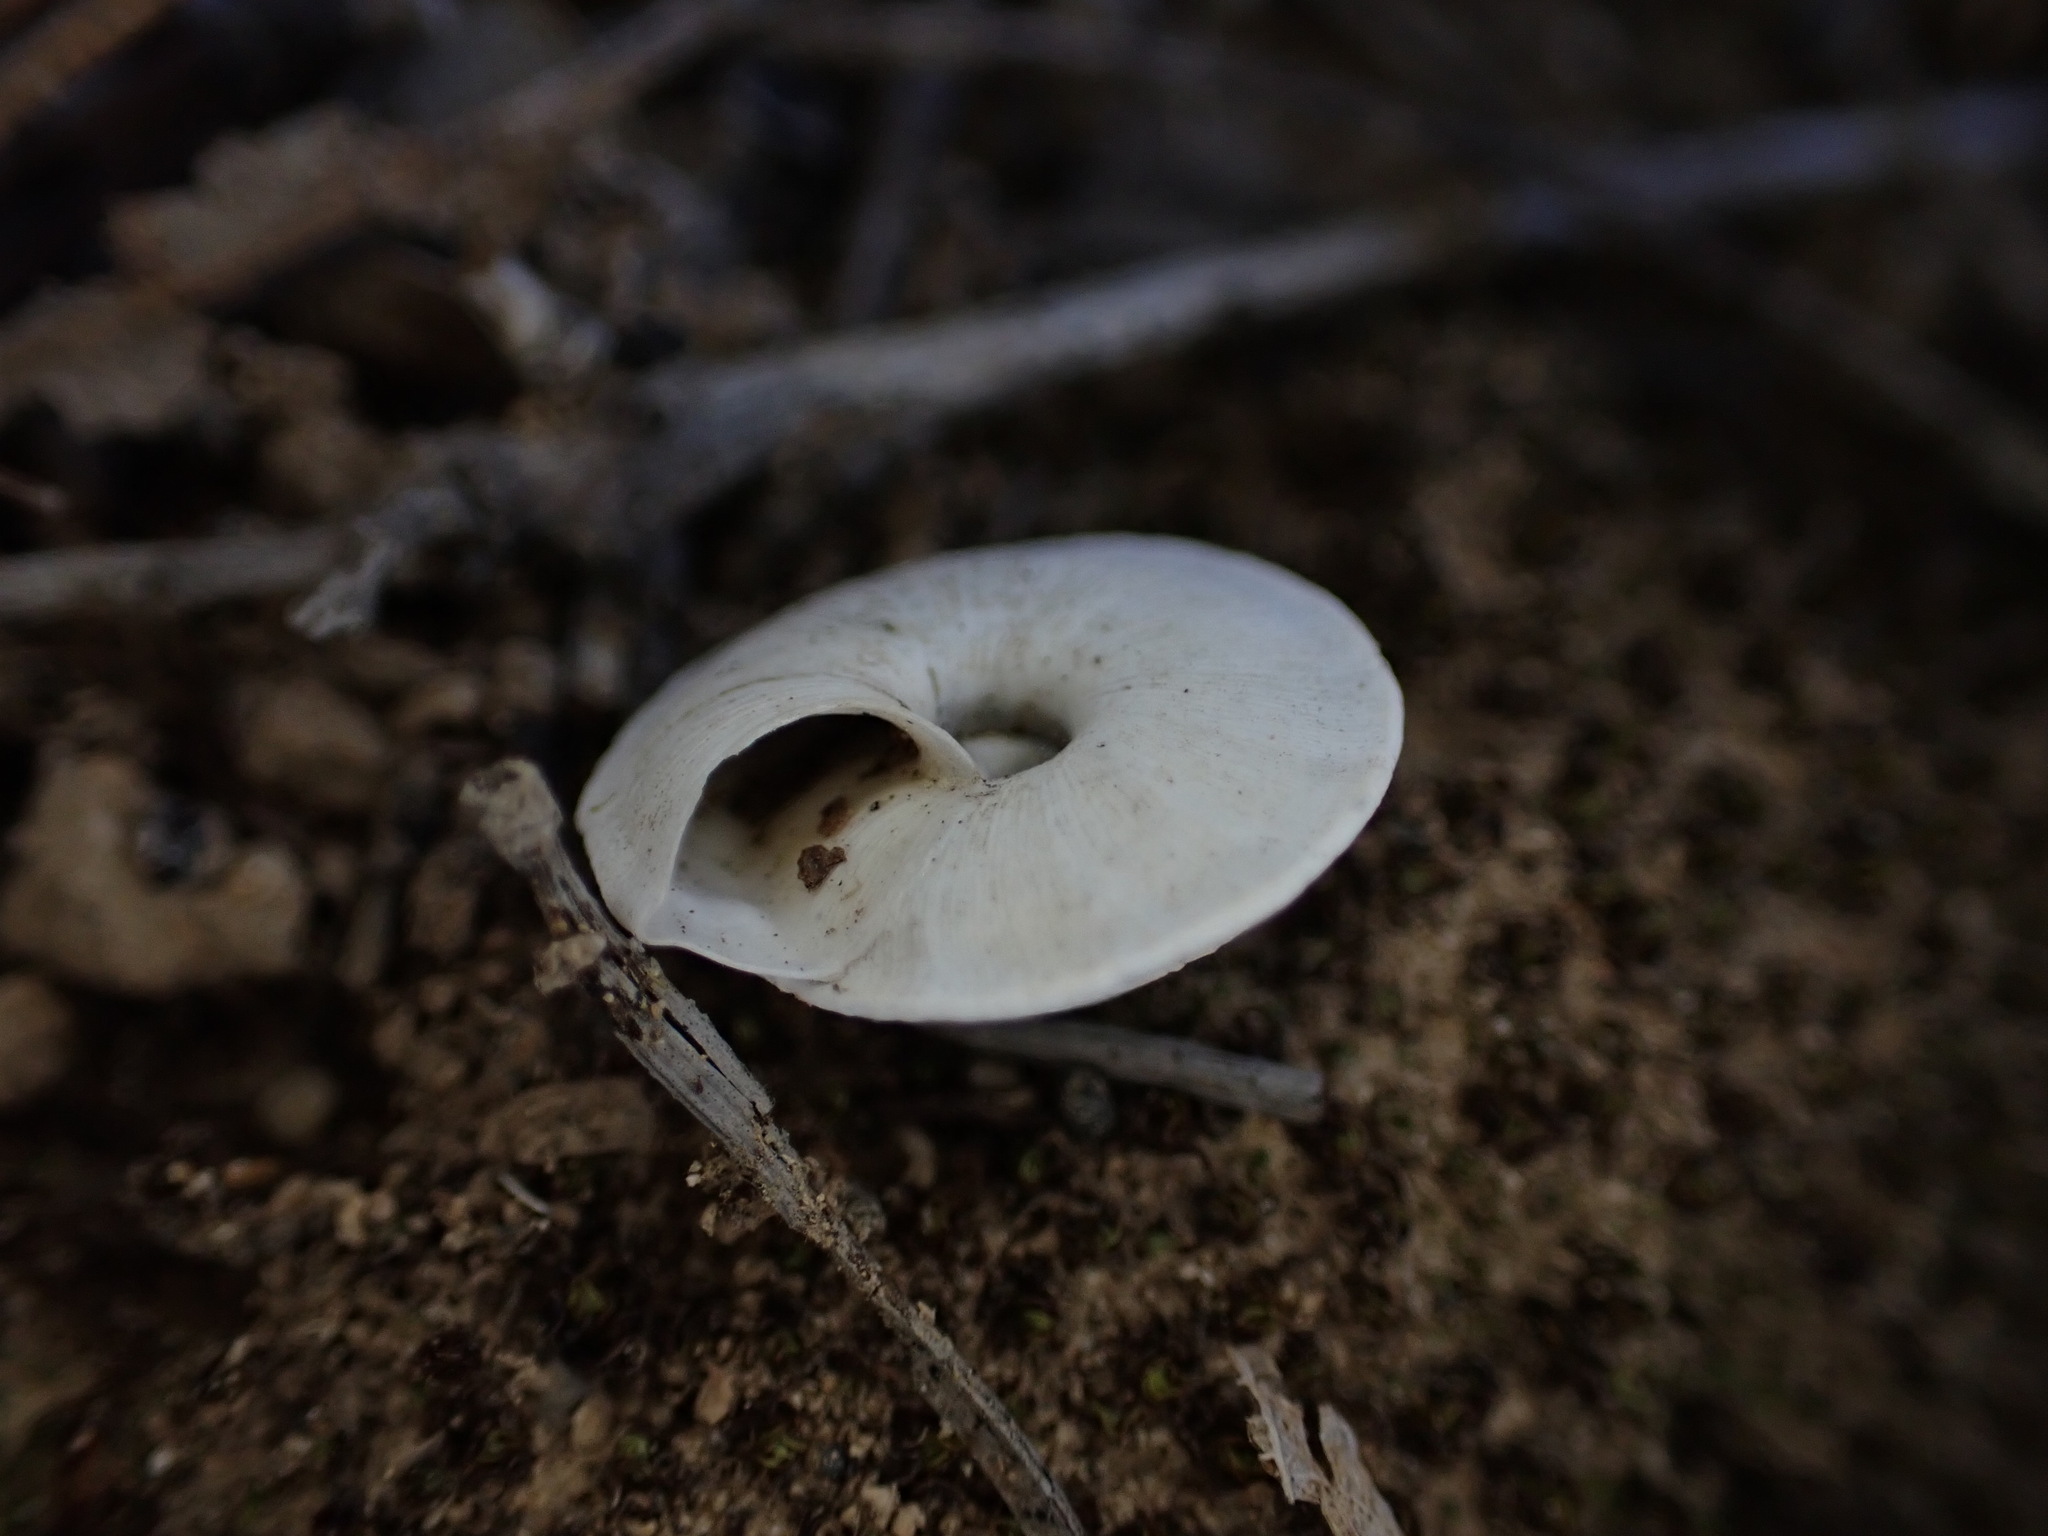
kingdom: Animalia
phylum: Mollusca
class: Gastropoda
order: Stylommatophora
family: Geomitridae
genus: Trochoidea
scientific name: Trochoidea elegans
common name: Elegant helicellid
